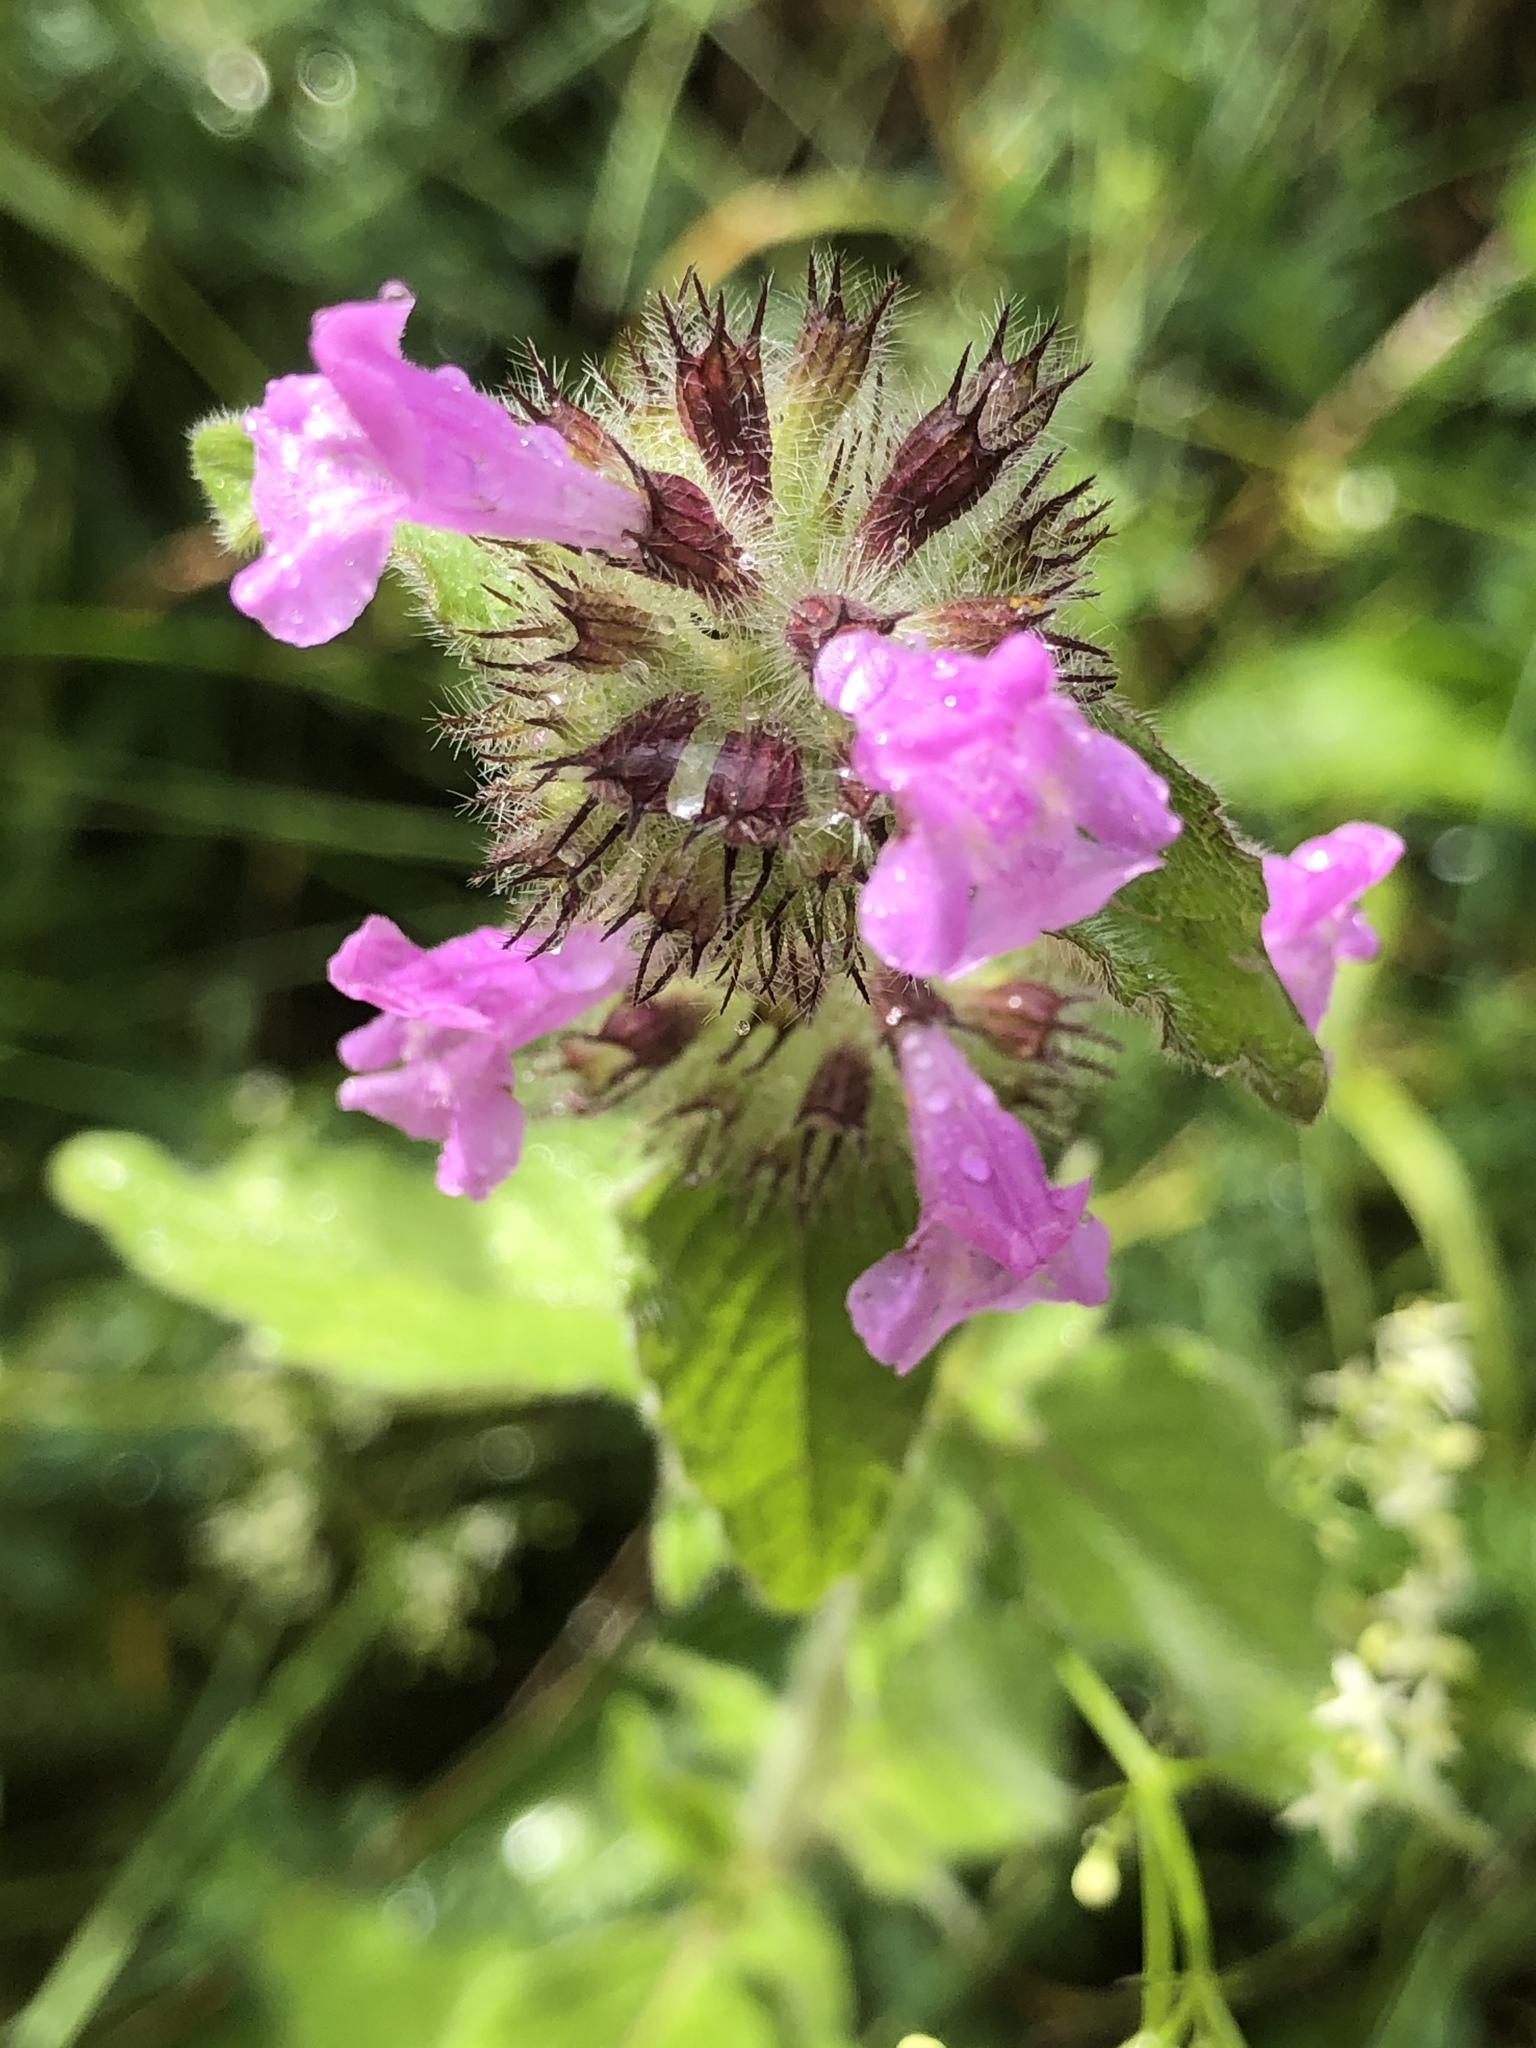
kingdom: Plantae
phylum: Tracheophyta
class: Magnoliopsida
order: Lamiales
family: Lamiaceae
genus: Clinopodium
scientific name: Clinopodium vulgare
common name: Wild basil
